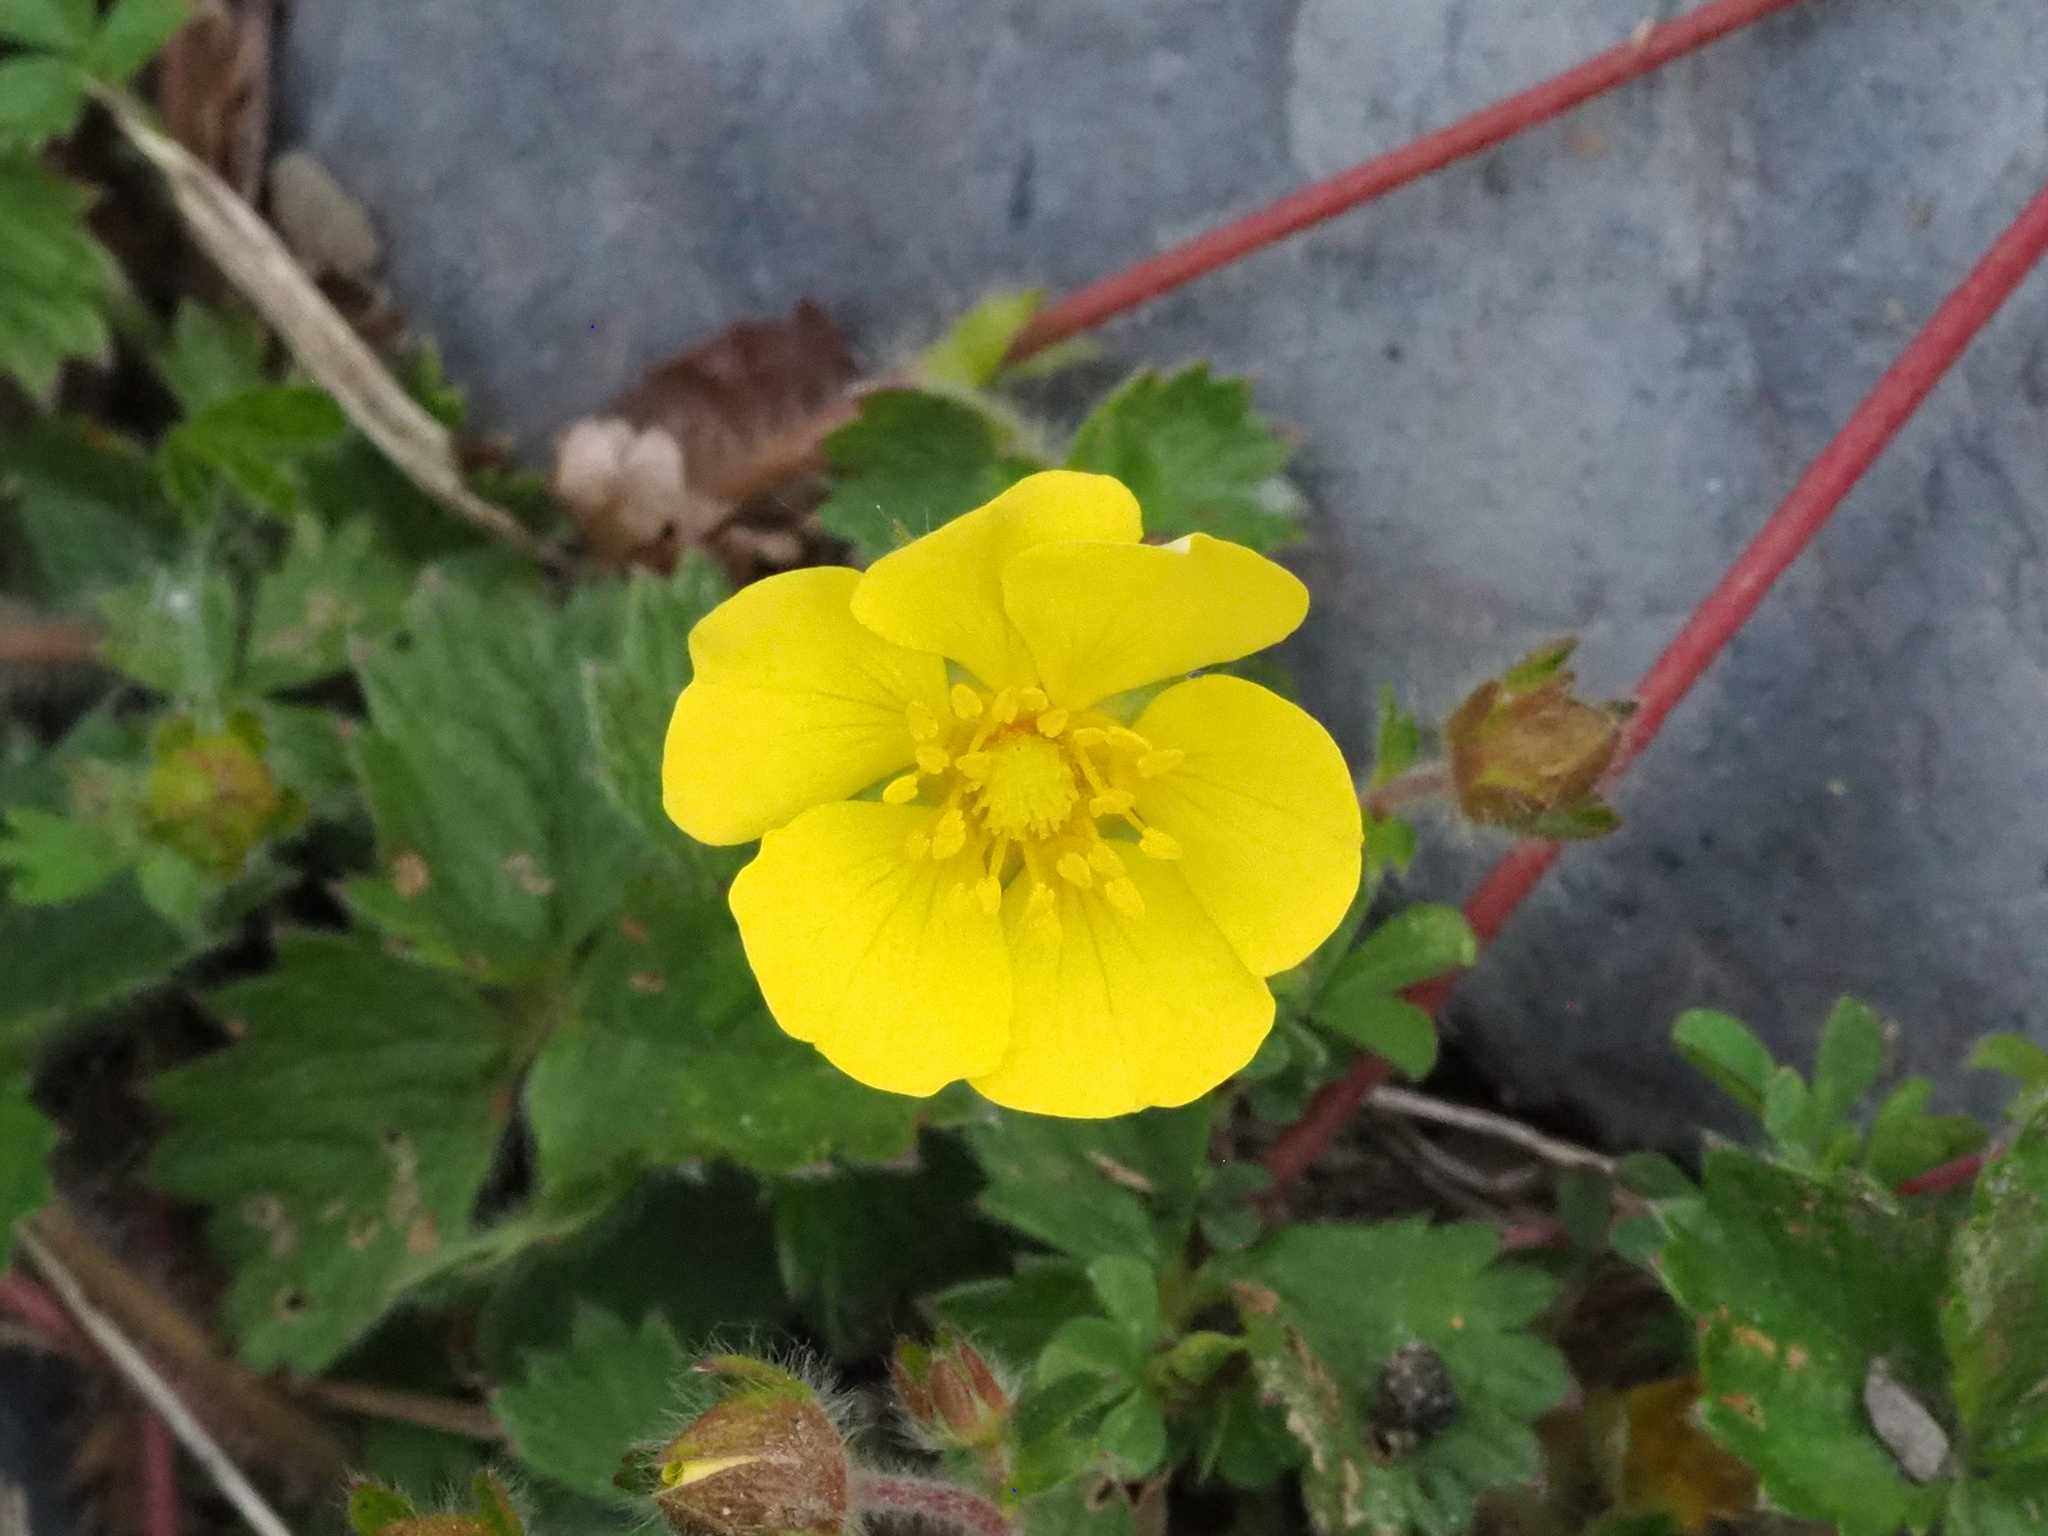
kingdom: Plantae
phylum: Tracheophyta
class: Magnoliopsida
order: Rosales
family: Rosaceae
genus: Potentilla
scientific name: Potentilla matsumurae
